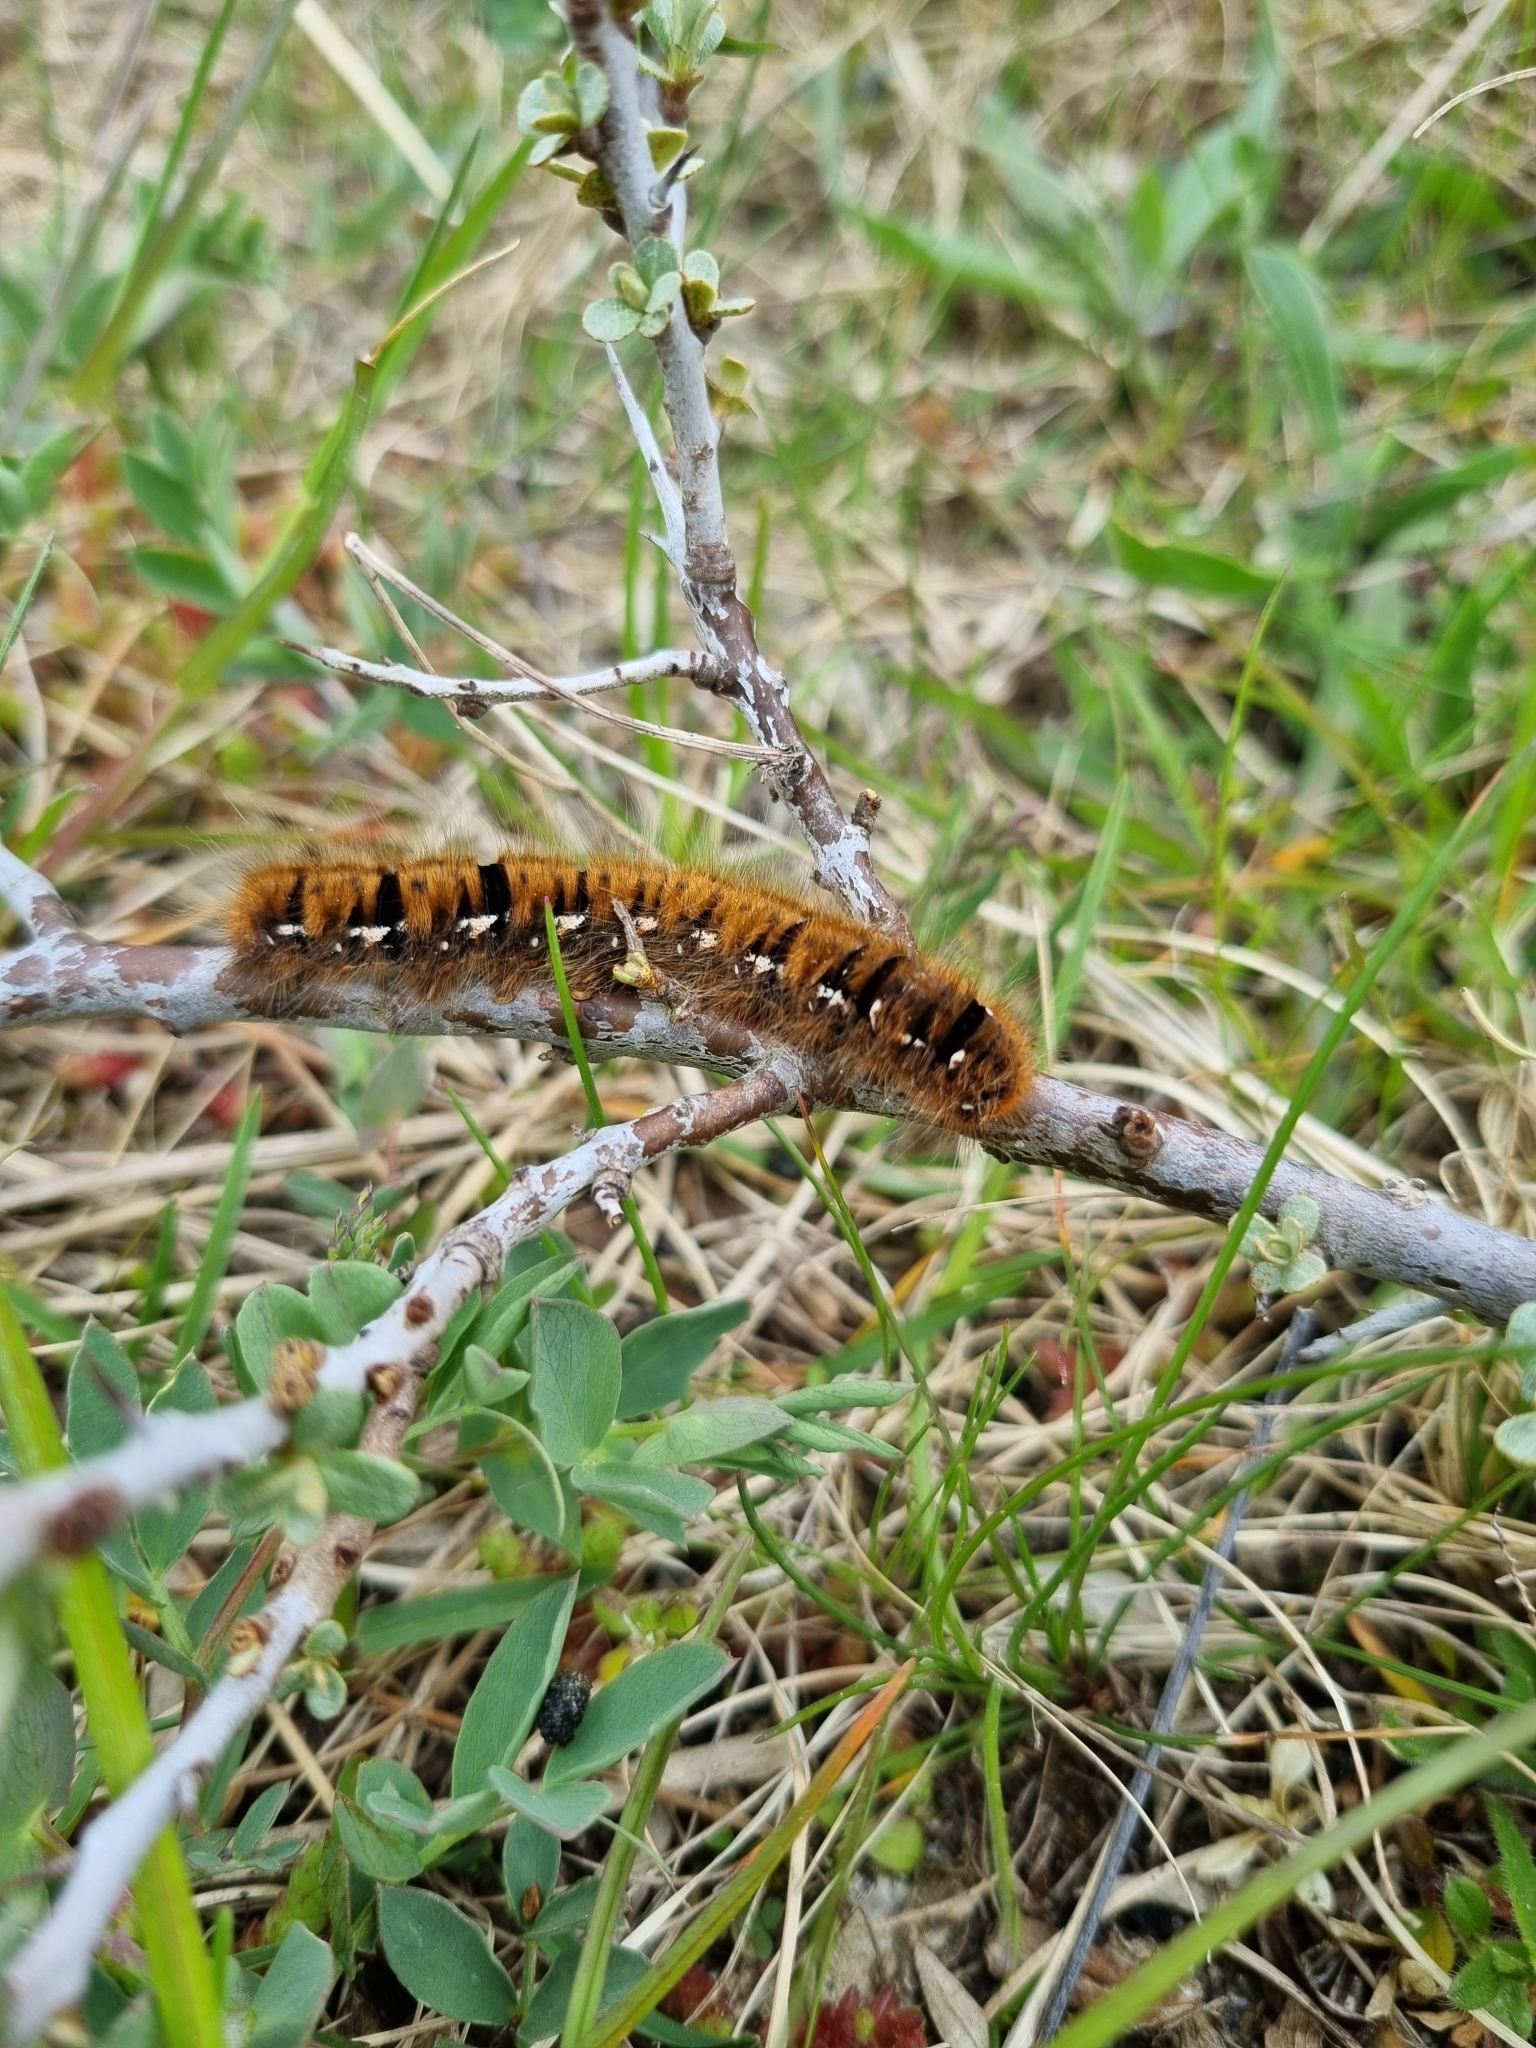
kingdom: Animalia
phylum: Arthropoda
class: Insecta
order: Lepidoptera
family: Lasiocampidae
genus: Lasiocampa
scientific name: Lasiocampa quercus
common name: Oak eggar
